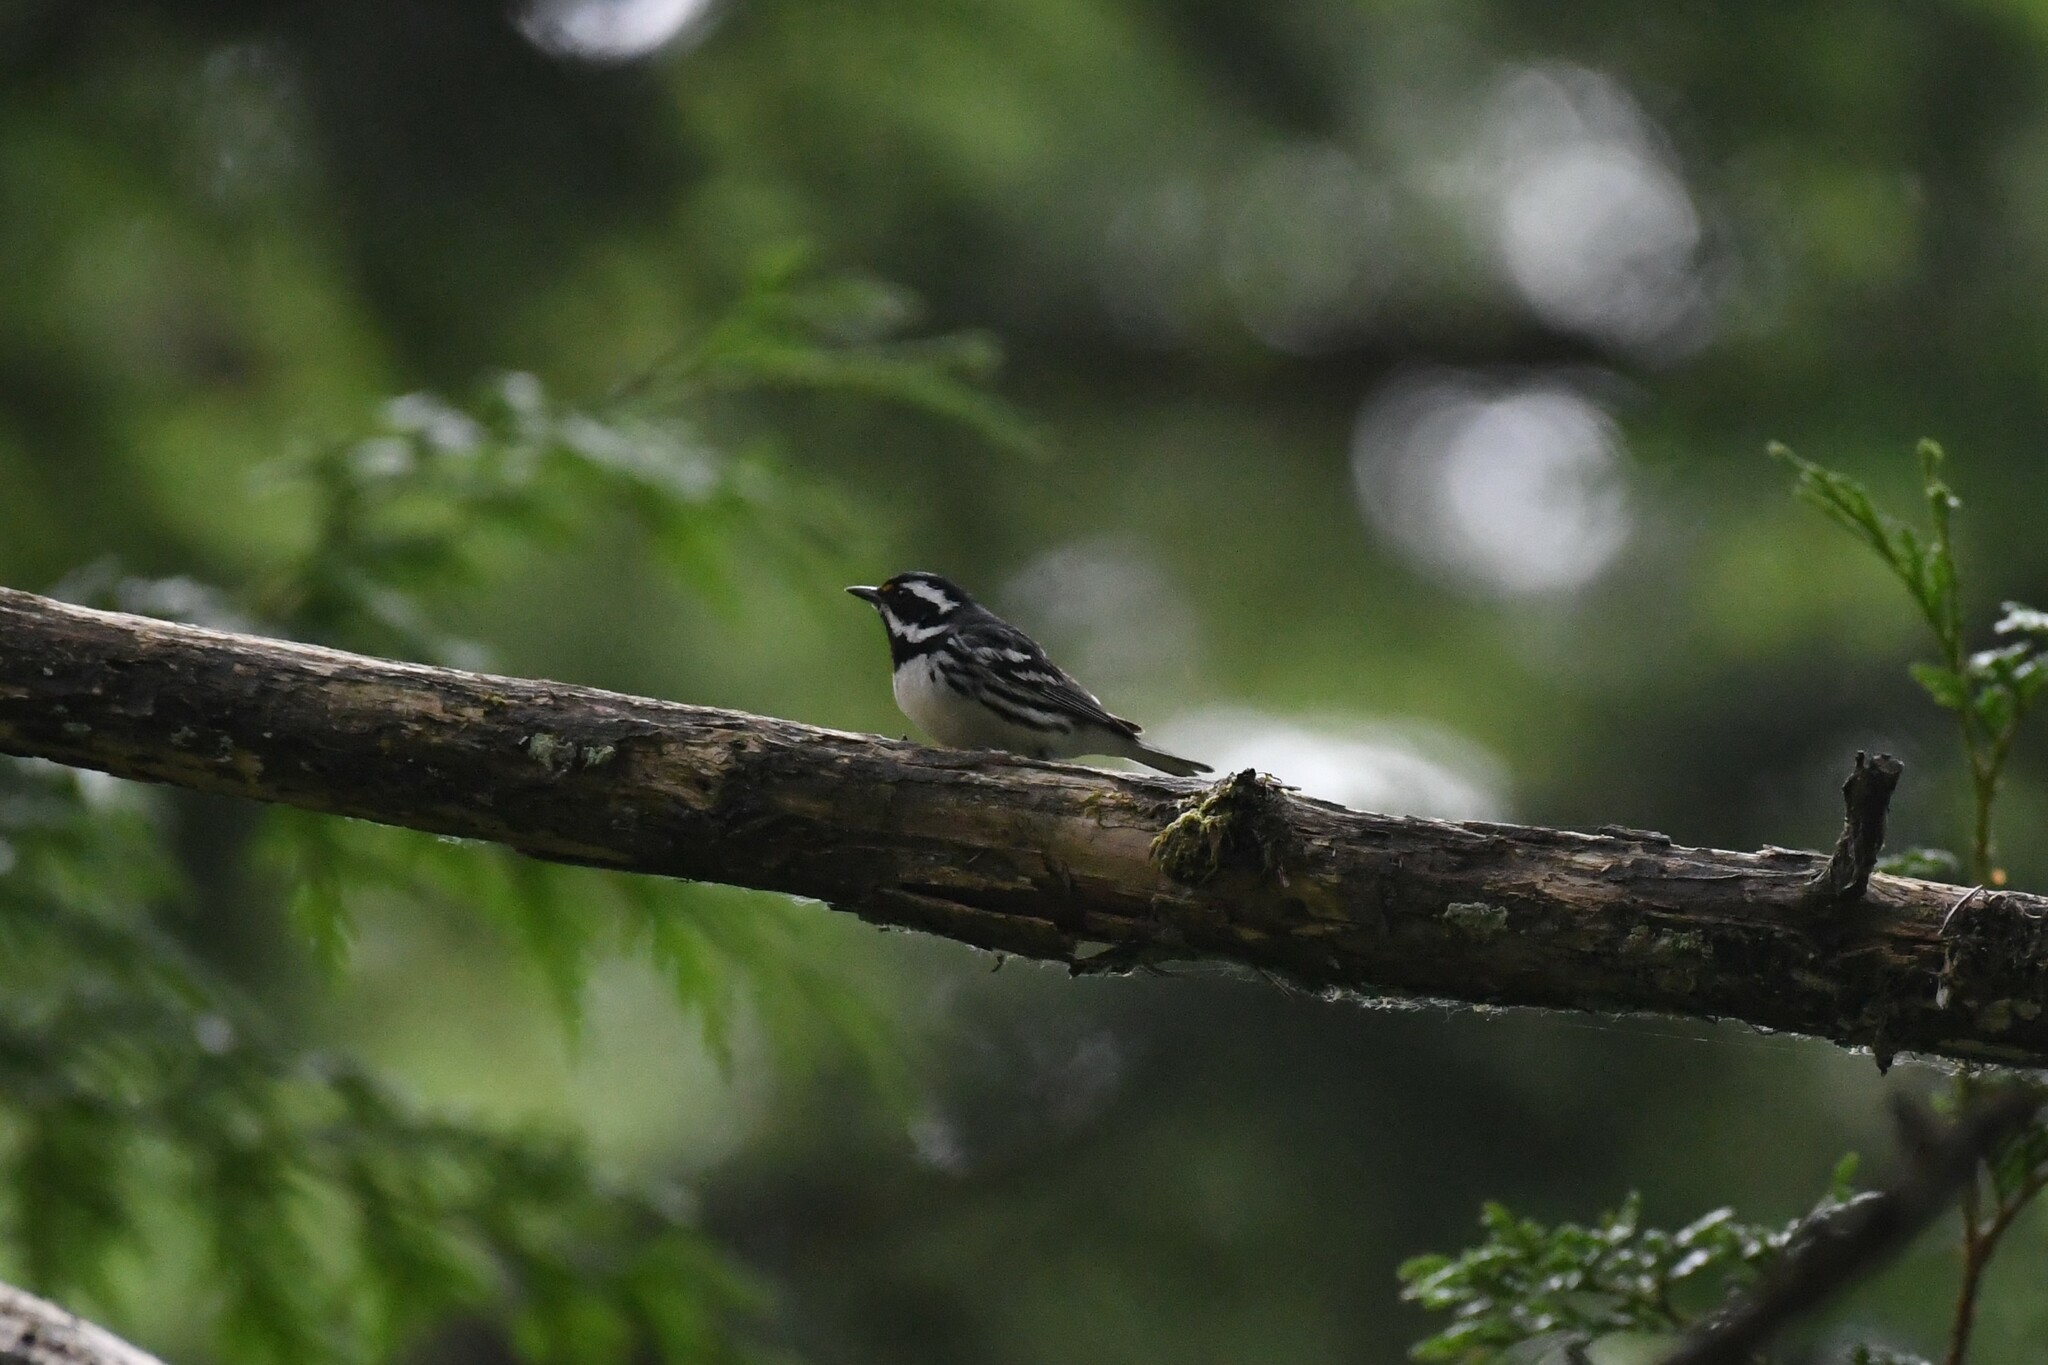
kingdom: Animalia
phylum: Chordata
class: Aves
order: Passeriformes
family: Parulidae
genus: Setophaga
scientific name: Setophaga nigrescens
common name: Black-throated gray warbler
